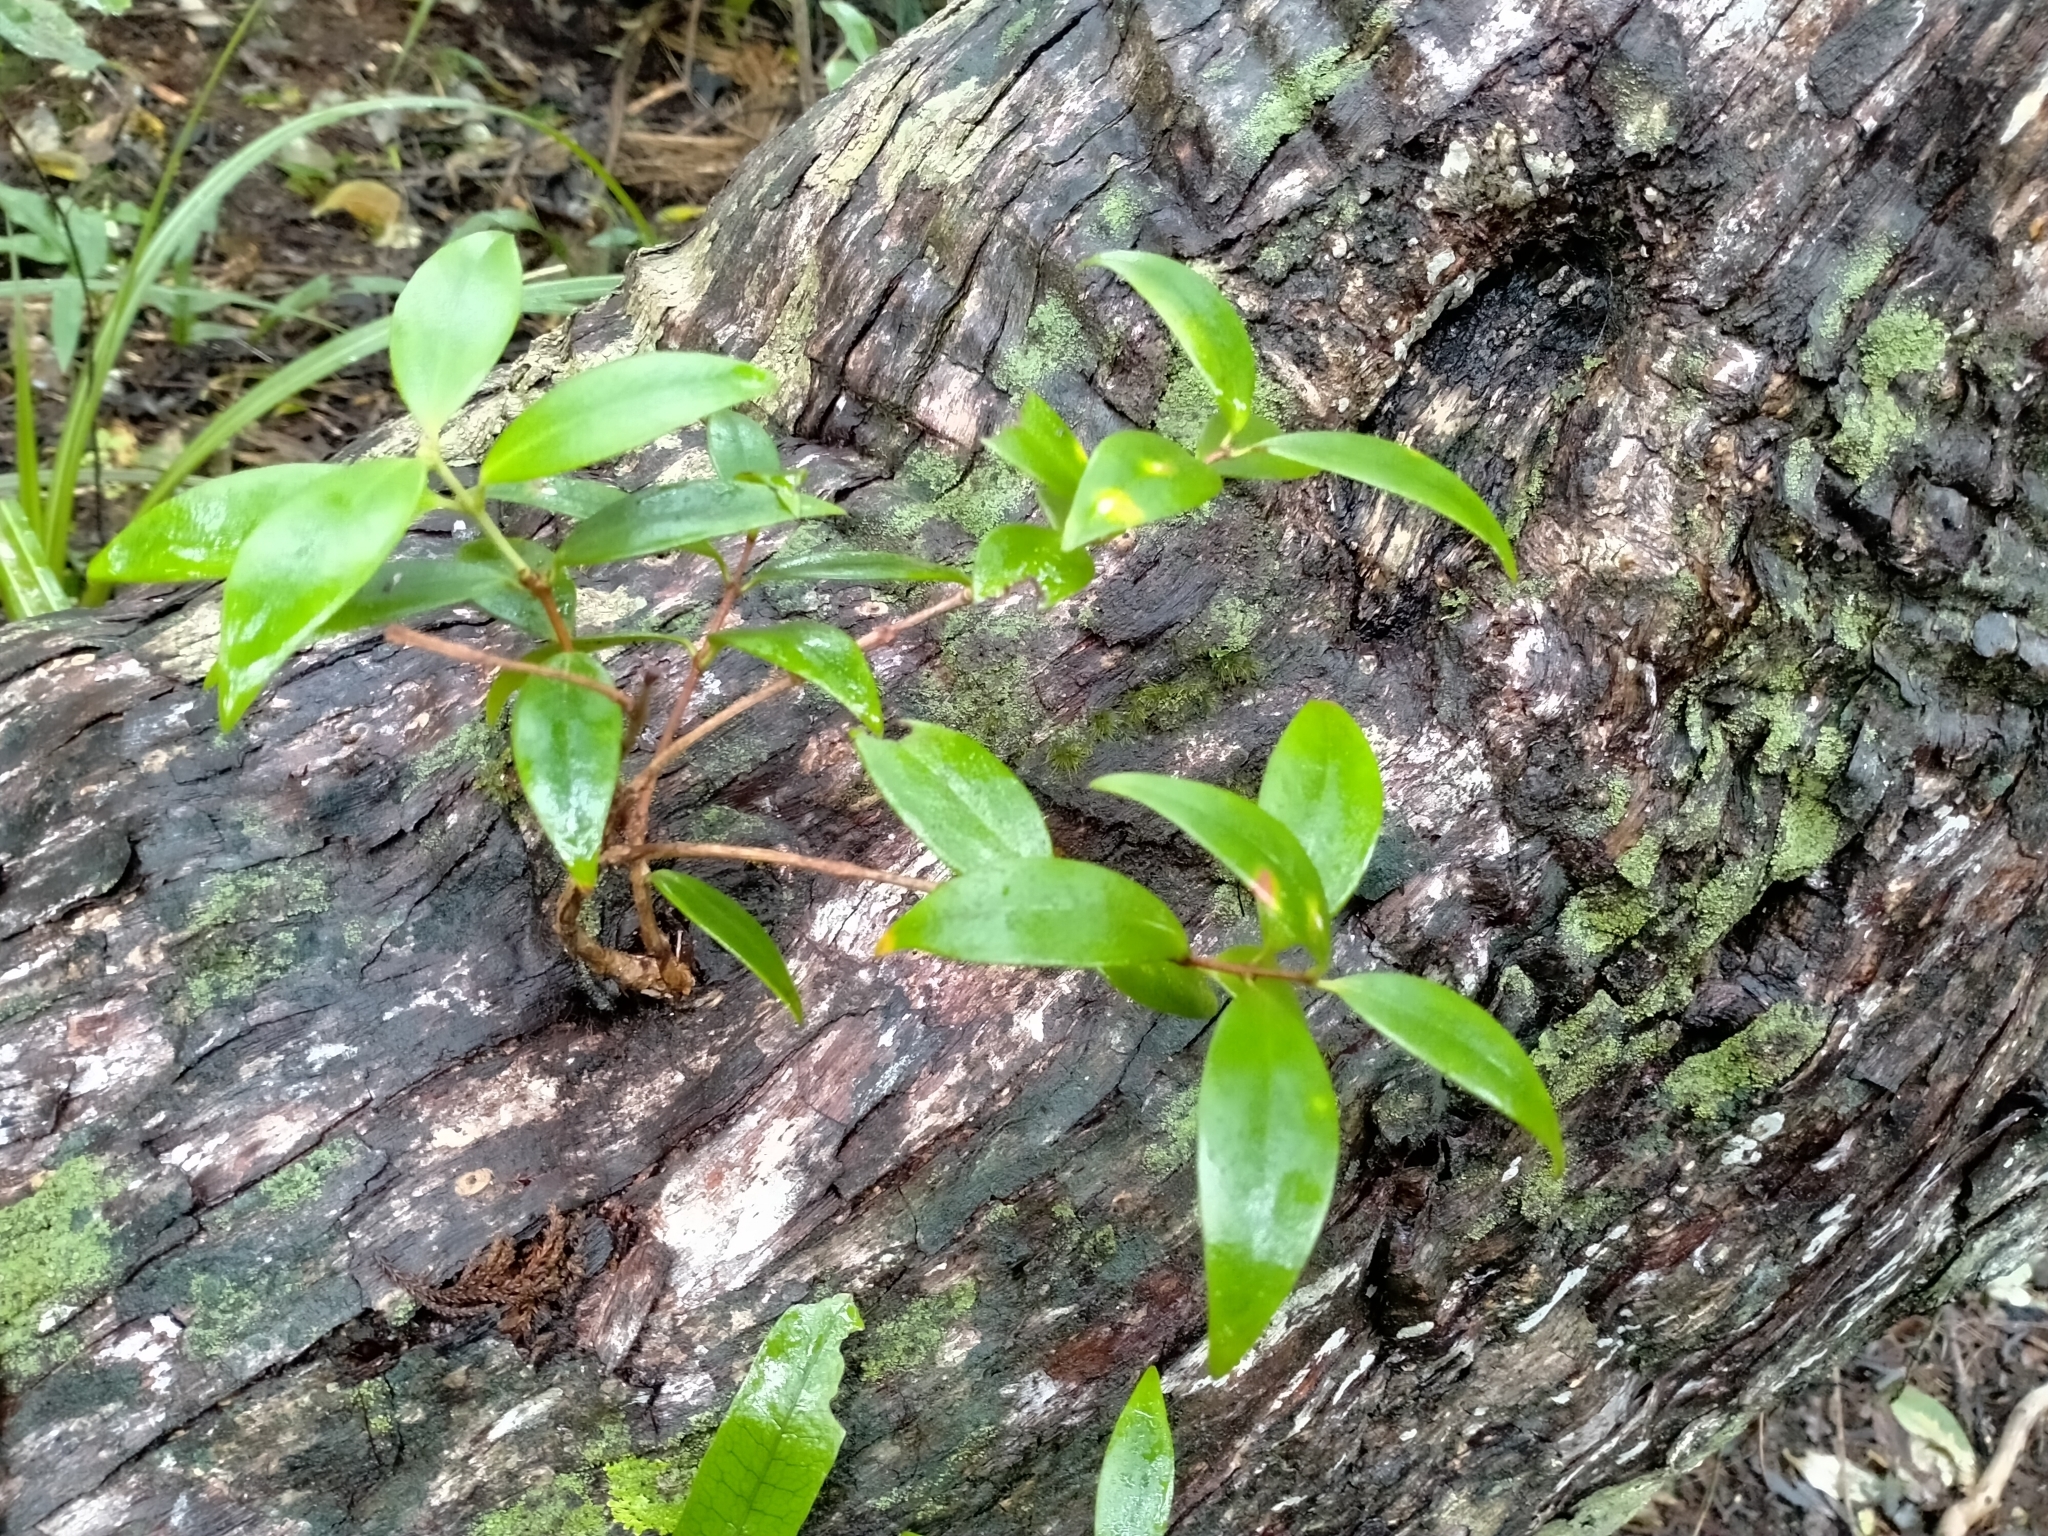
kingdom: Plantae
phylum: Tracheophyta
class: Magnoliopsida
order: Myrtales
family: Myrtaceae
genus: Metrosideros
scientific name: Metrosideros umbellata
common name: Southern rata
